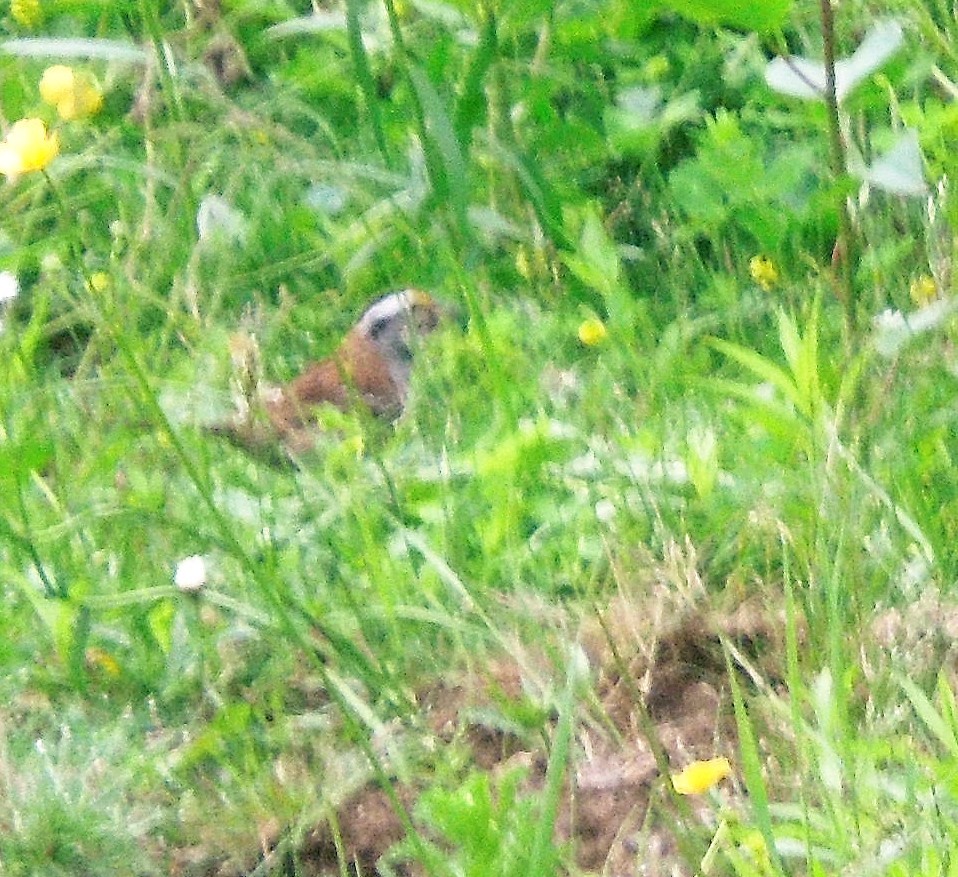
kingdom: Animalia
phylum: Chordata
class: Aves
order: Passeriformes
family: Passerellidae
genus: Zonotrichia
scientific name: Zonotrichia albicollis
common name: White-throated sparrow
